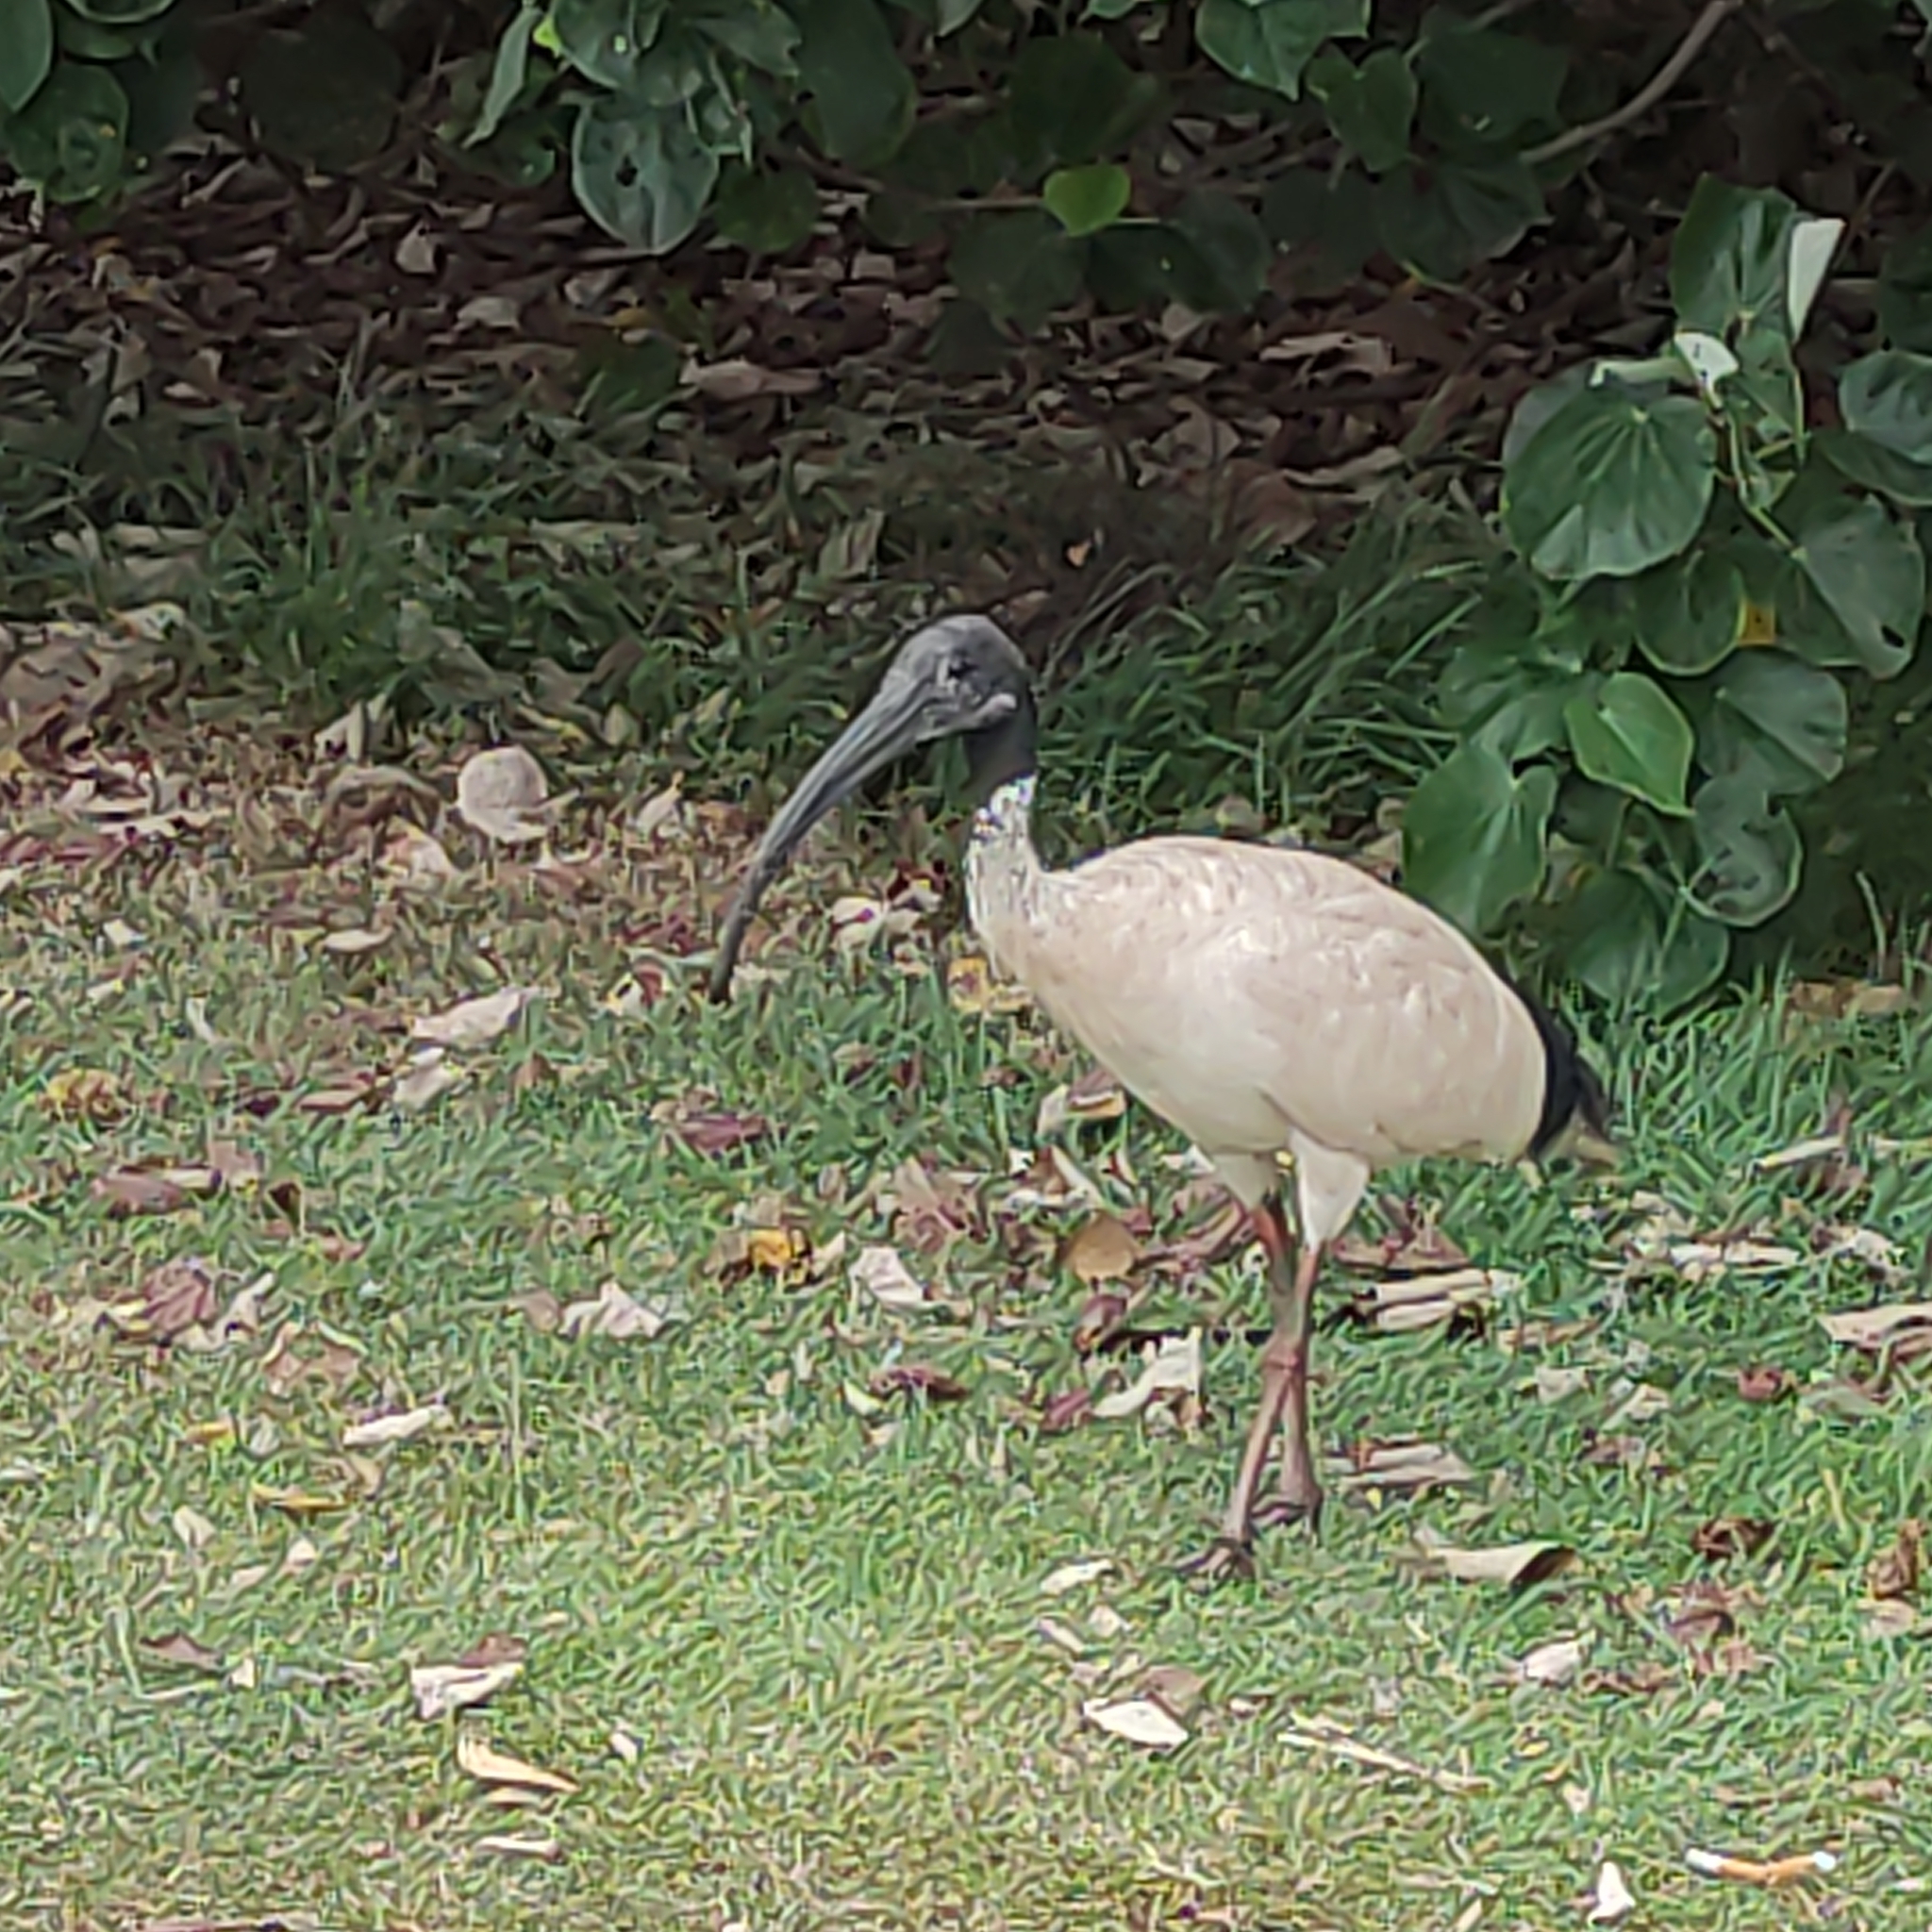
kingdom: Animalia
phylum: Chordata
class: Aves
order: Pelecaniformes
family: Threskiornithidae
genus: Threskiornis
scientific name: Threskiornis molucca
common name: Australian white ibis
